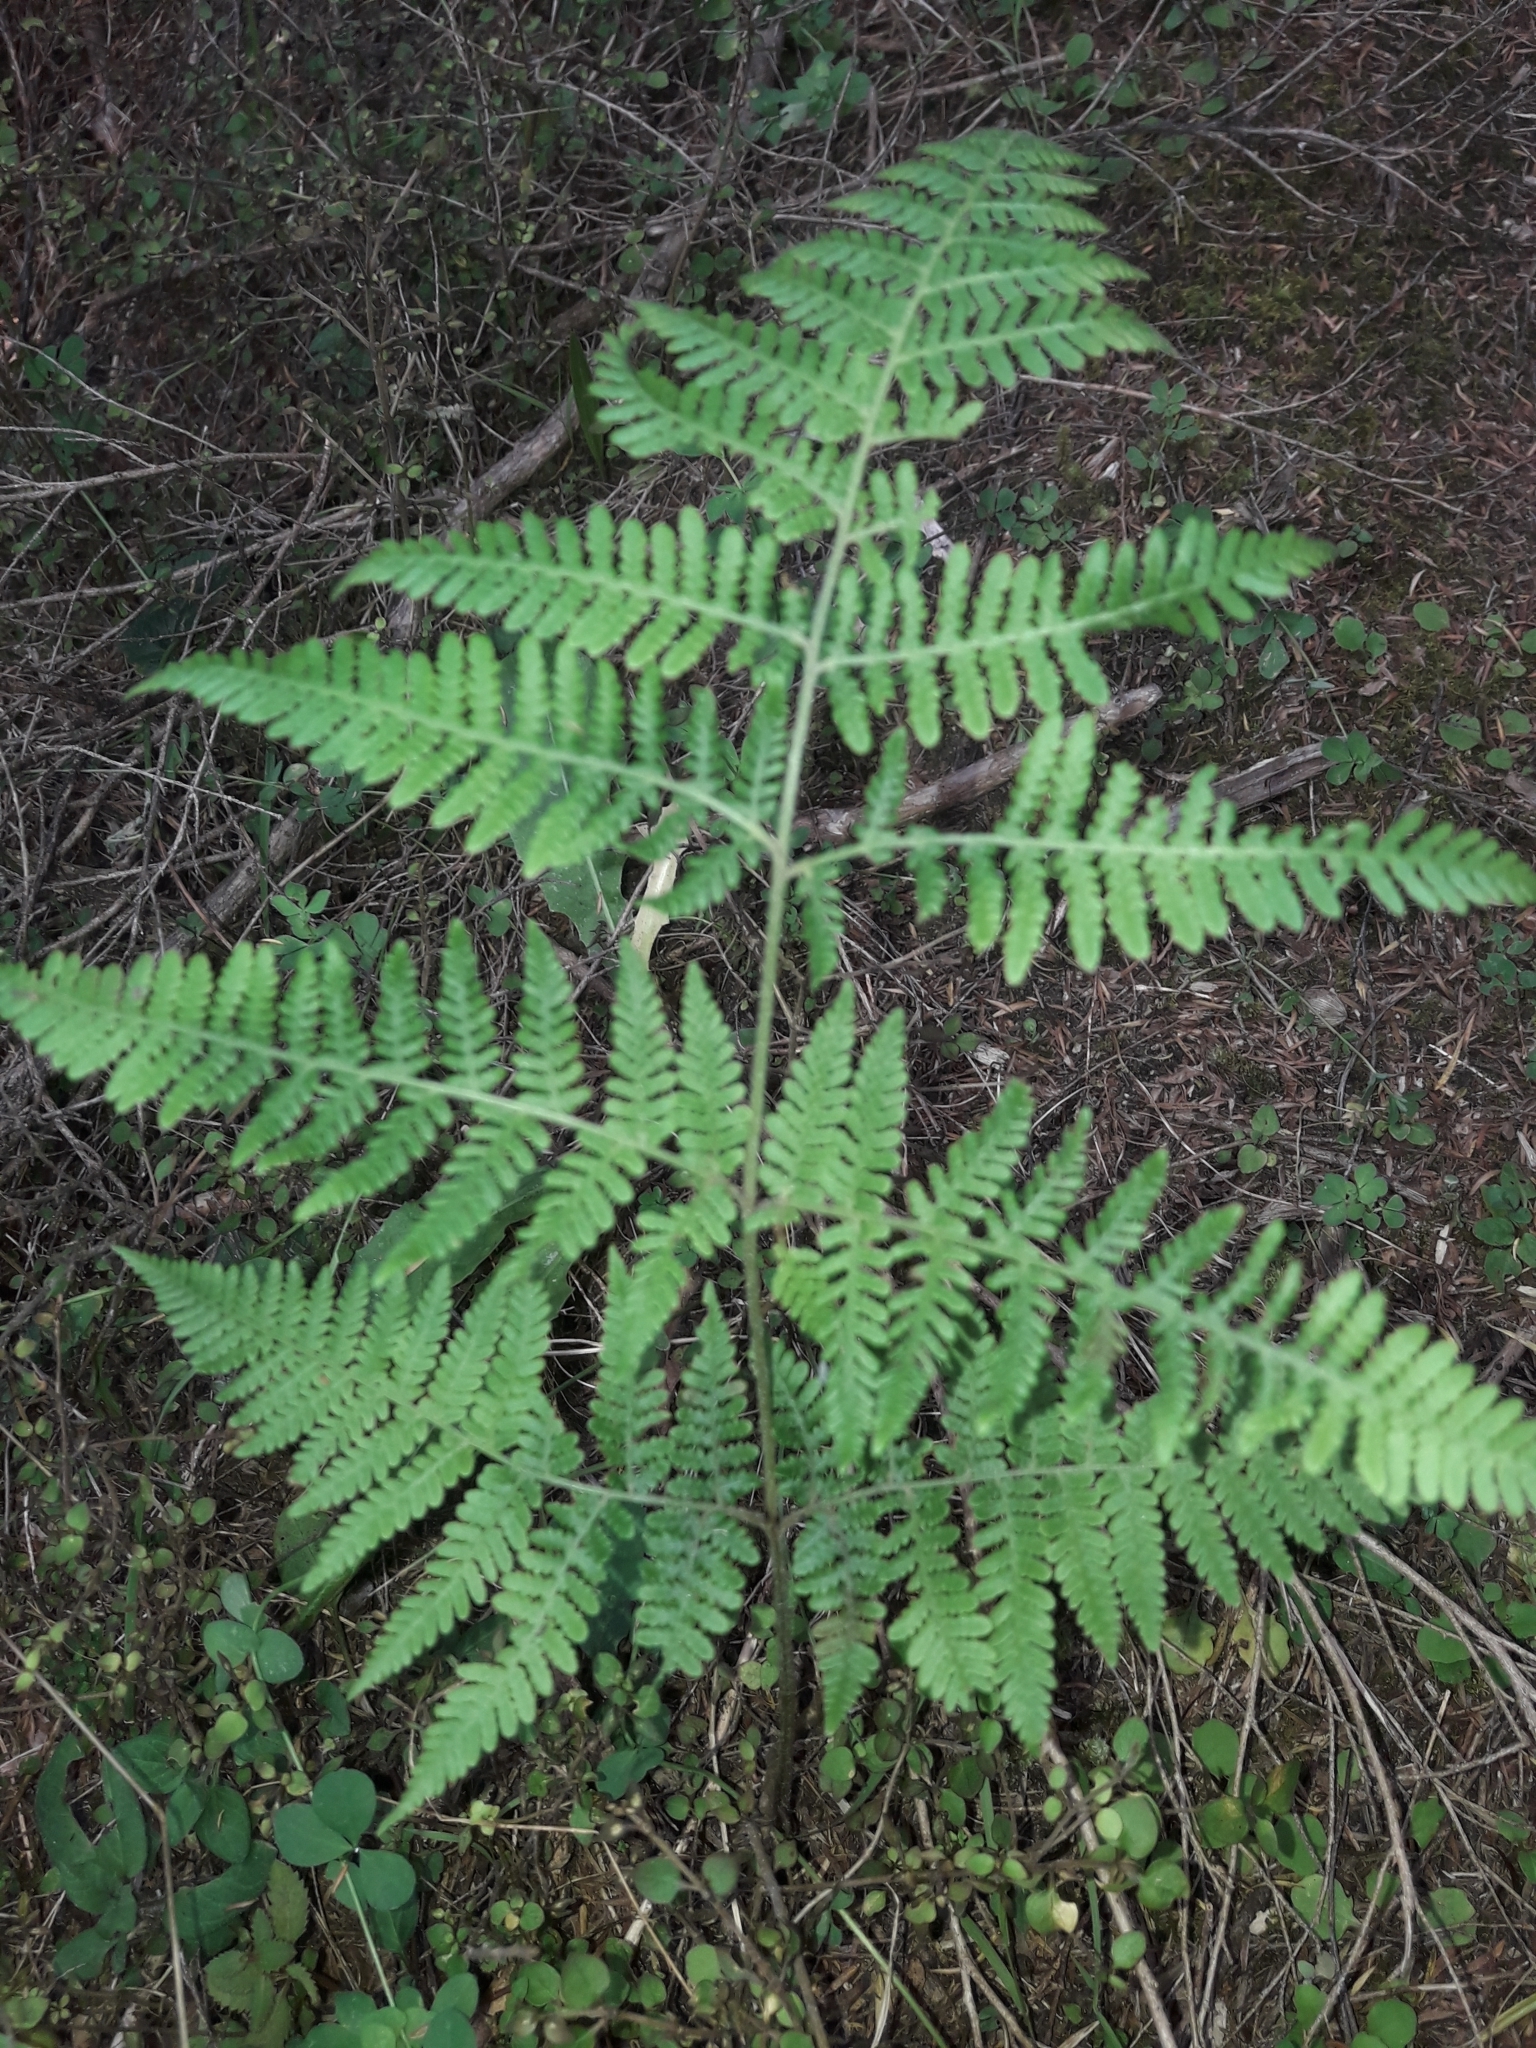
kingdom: Plantae
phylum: Tracheophyta
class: Polypodiopsida
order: Polypodiales
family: Dennstaedtiaceae
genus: Hypolepis
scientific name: Hypolepis ambigua
